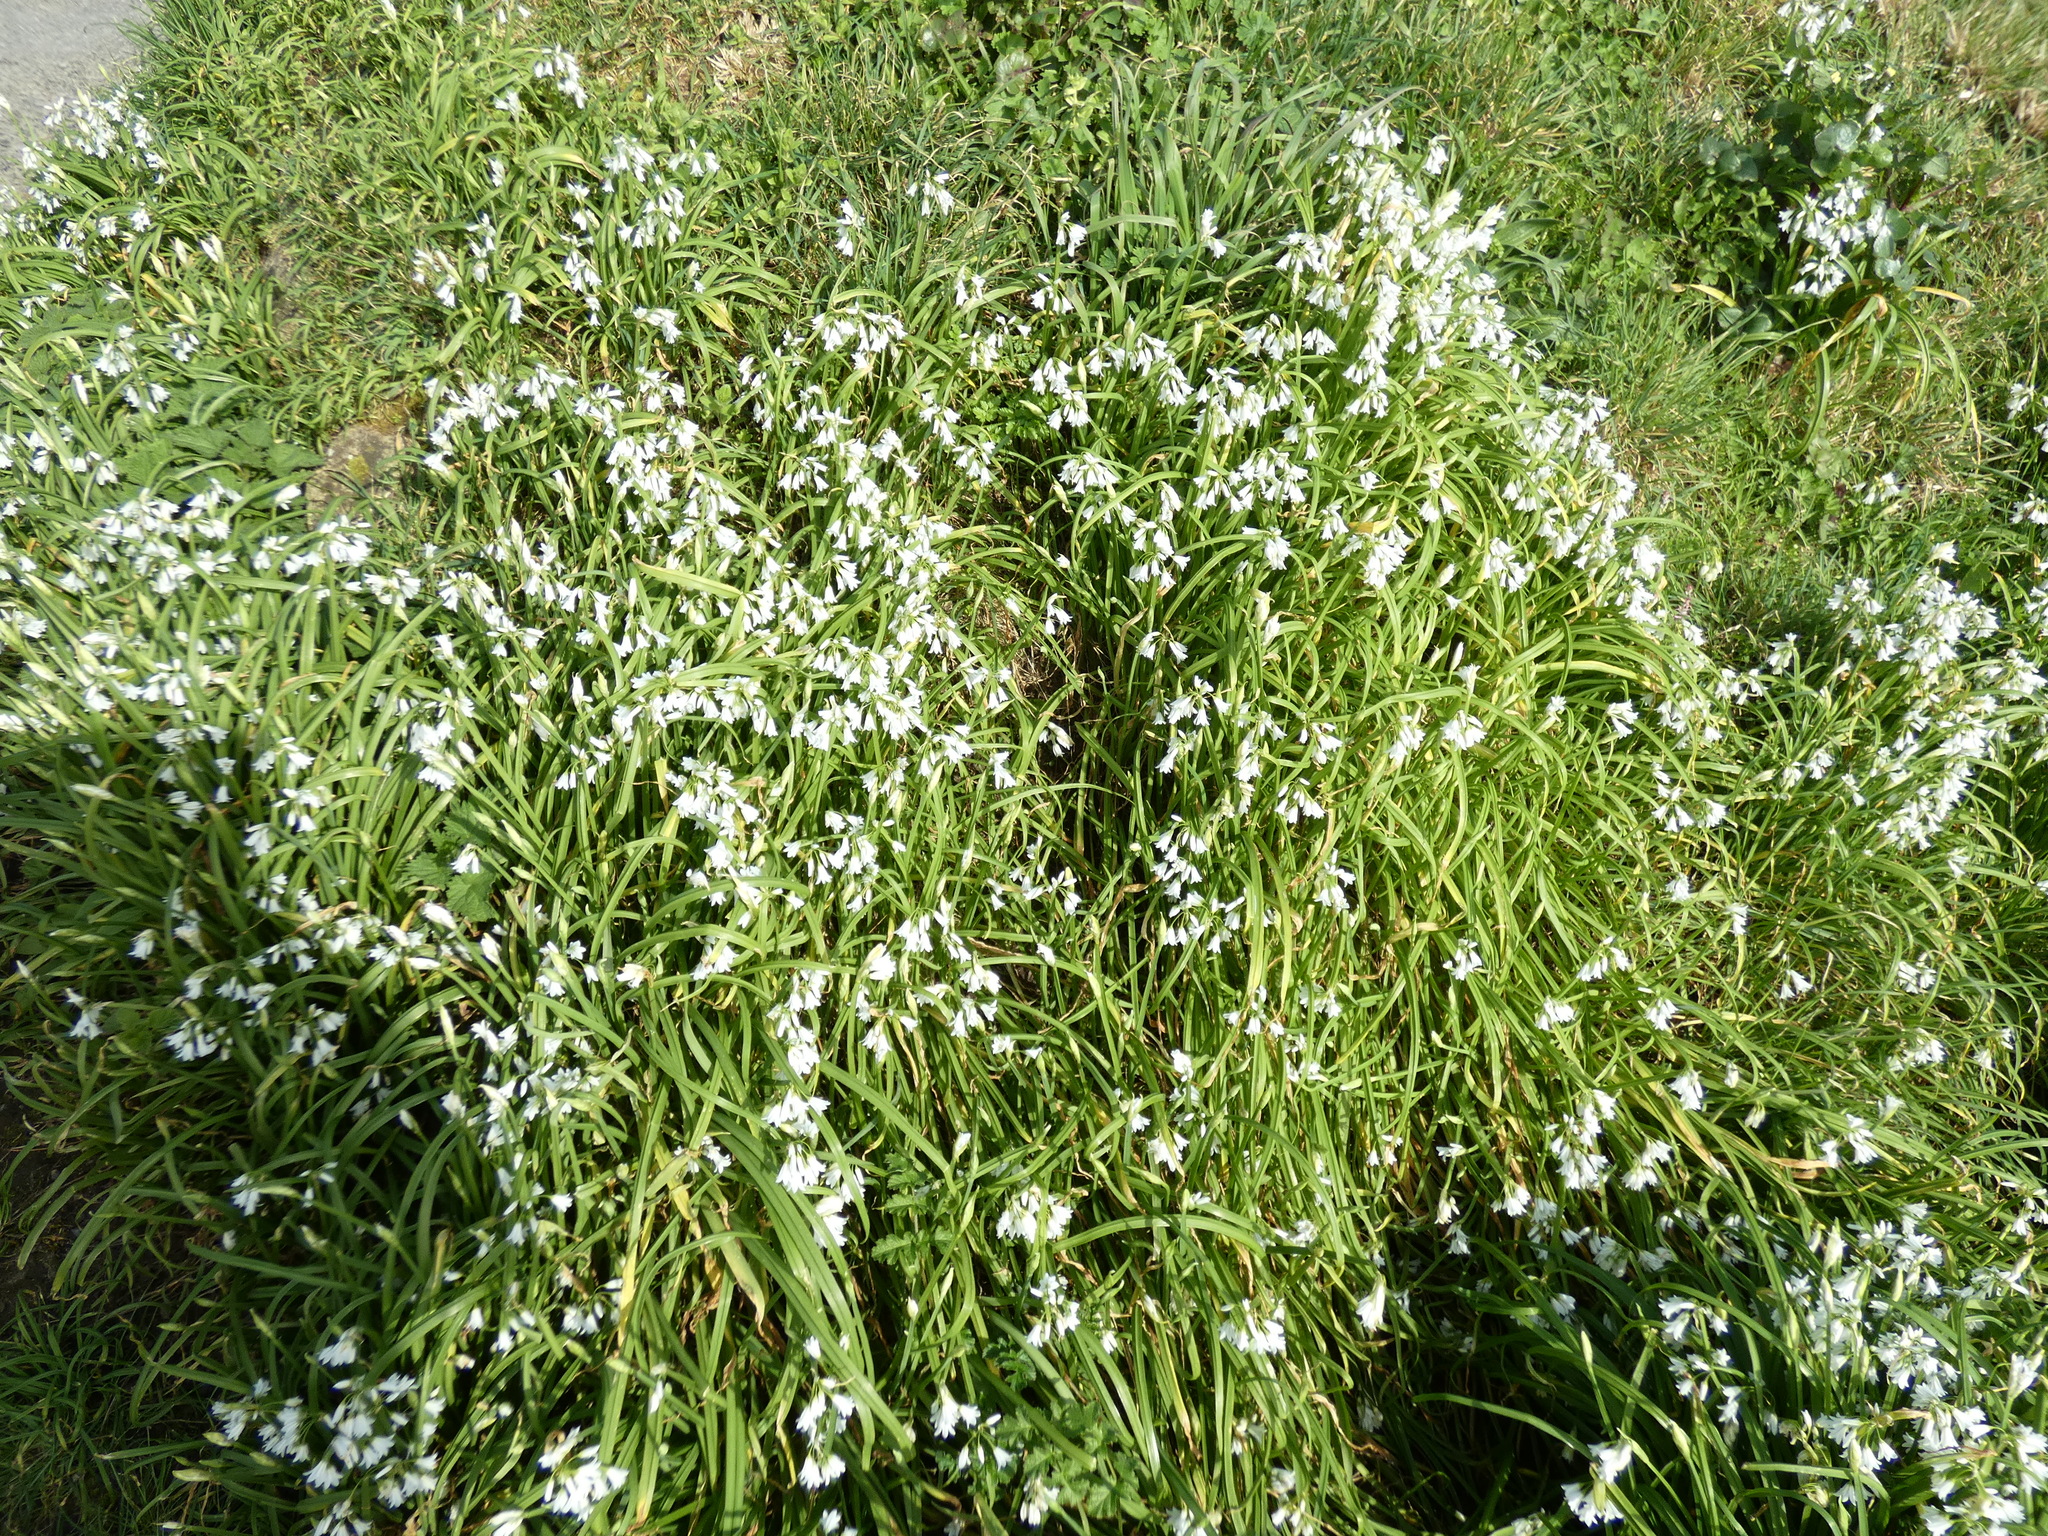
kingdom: Plantae
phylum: Tracheophyta
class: Liliopsida
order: Asparagales
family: Amaryllidaceae
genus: Allium
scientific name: Allium triquetrum
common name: Three-cornered garlic
